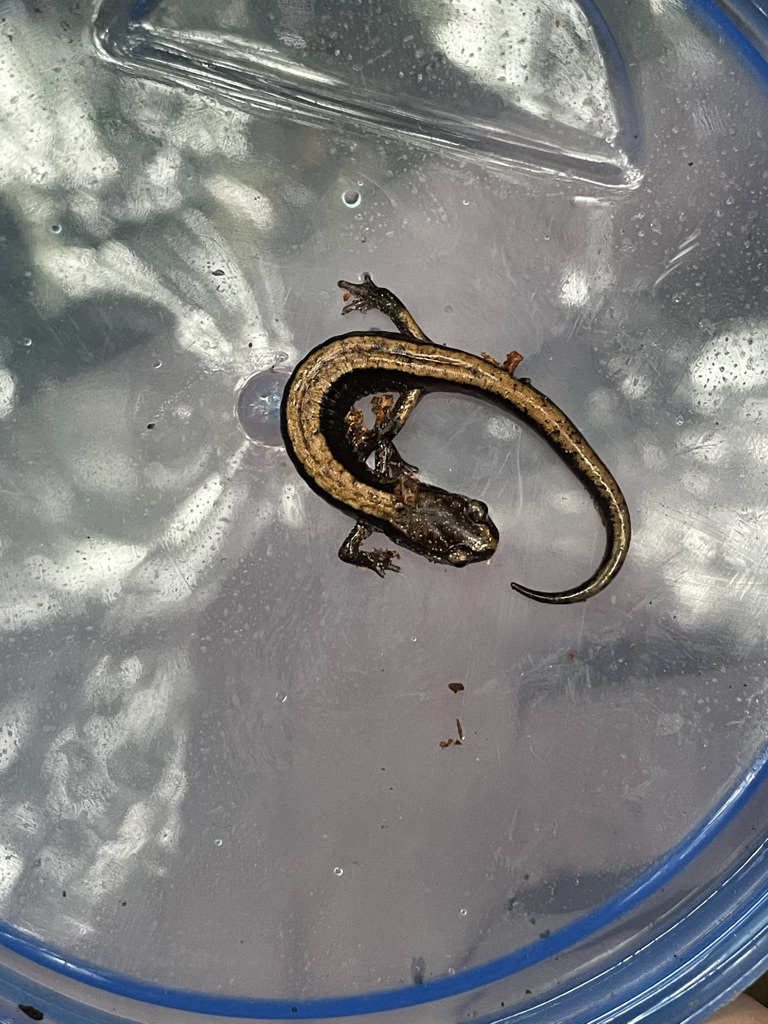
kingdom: Animalia
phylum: Chordata
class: Amphibia
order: Caudata
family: Plethodontidae
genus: Plethodon
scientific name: Plethodon vehiculum
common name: Western red-backed salamander
